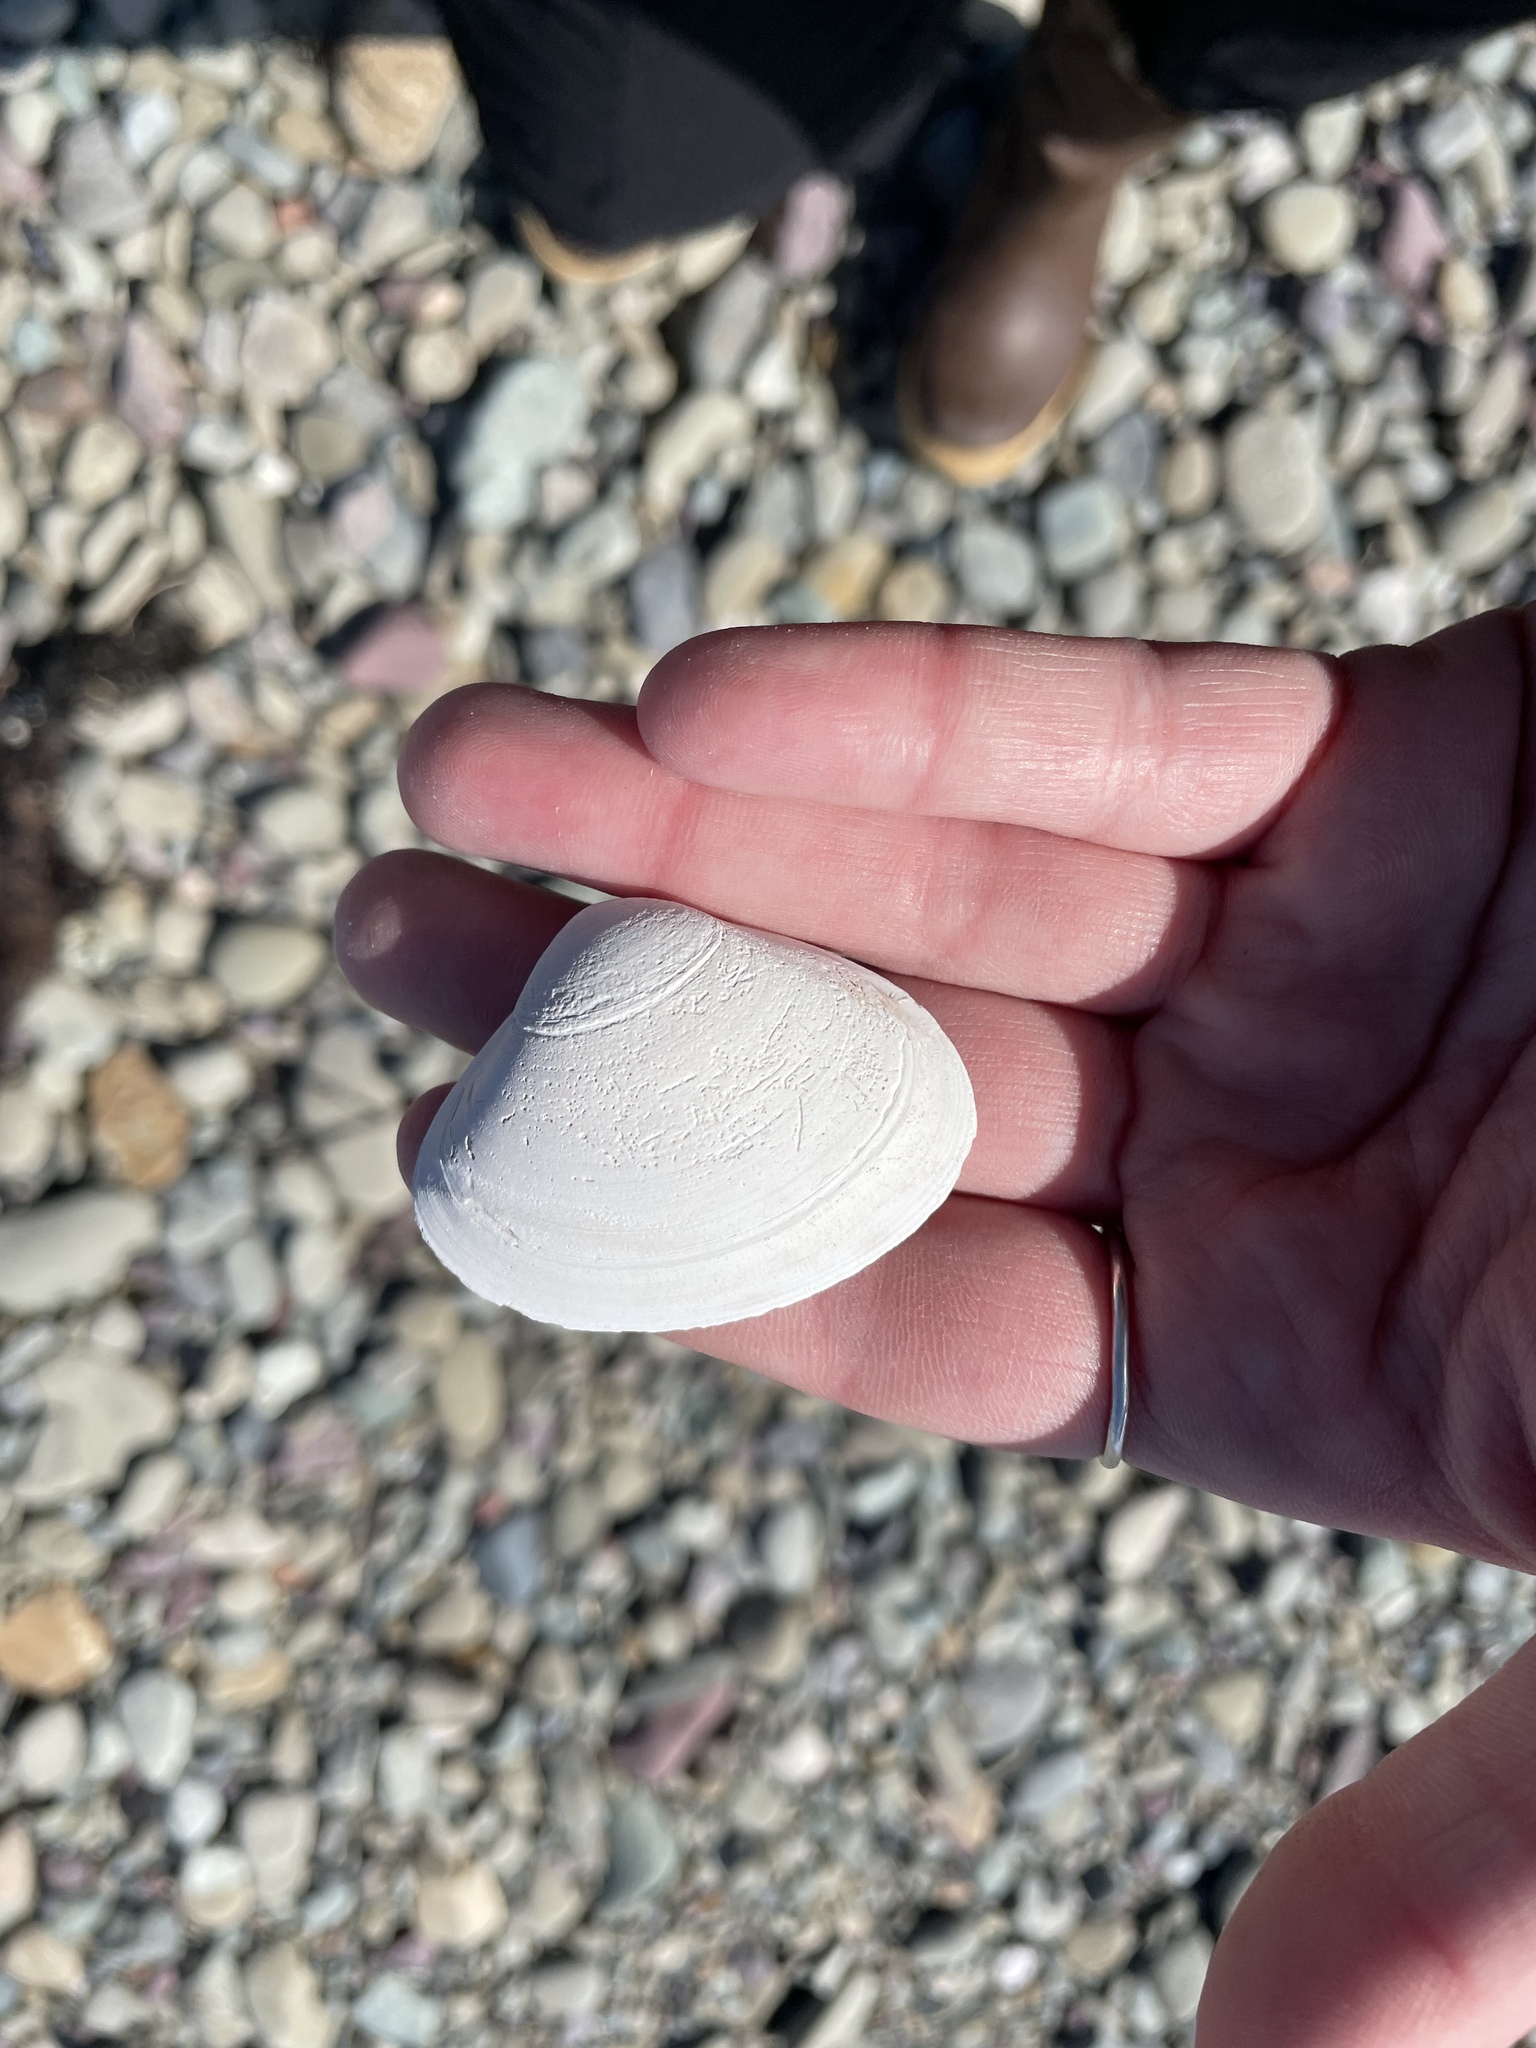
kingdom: Animalia
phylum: Mollusca
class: Bivalvia
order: Venerida
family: Mactridae
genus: Spisula
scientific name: Spisula solidissima
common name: Atlantic surf clam
